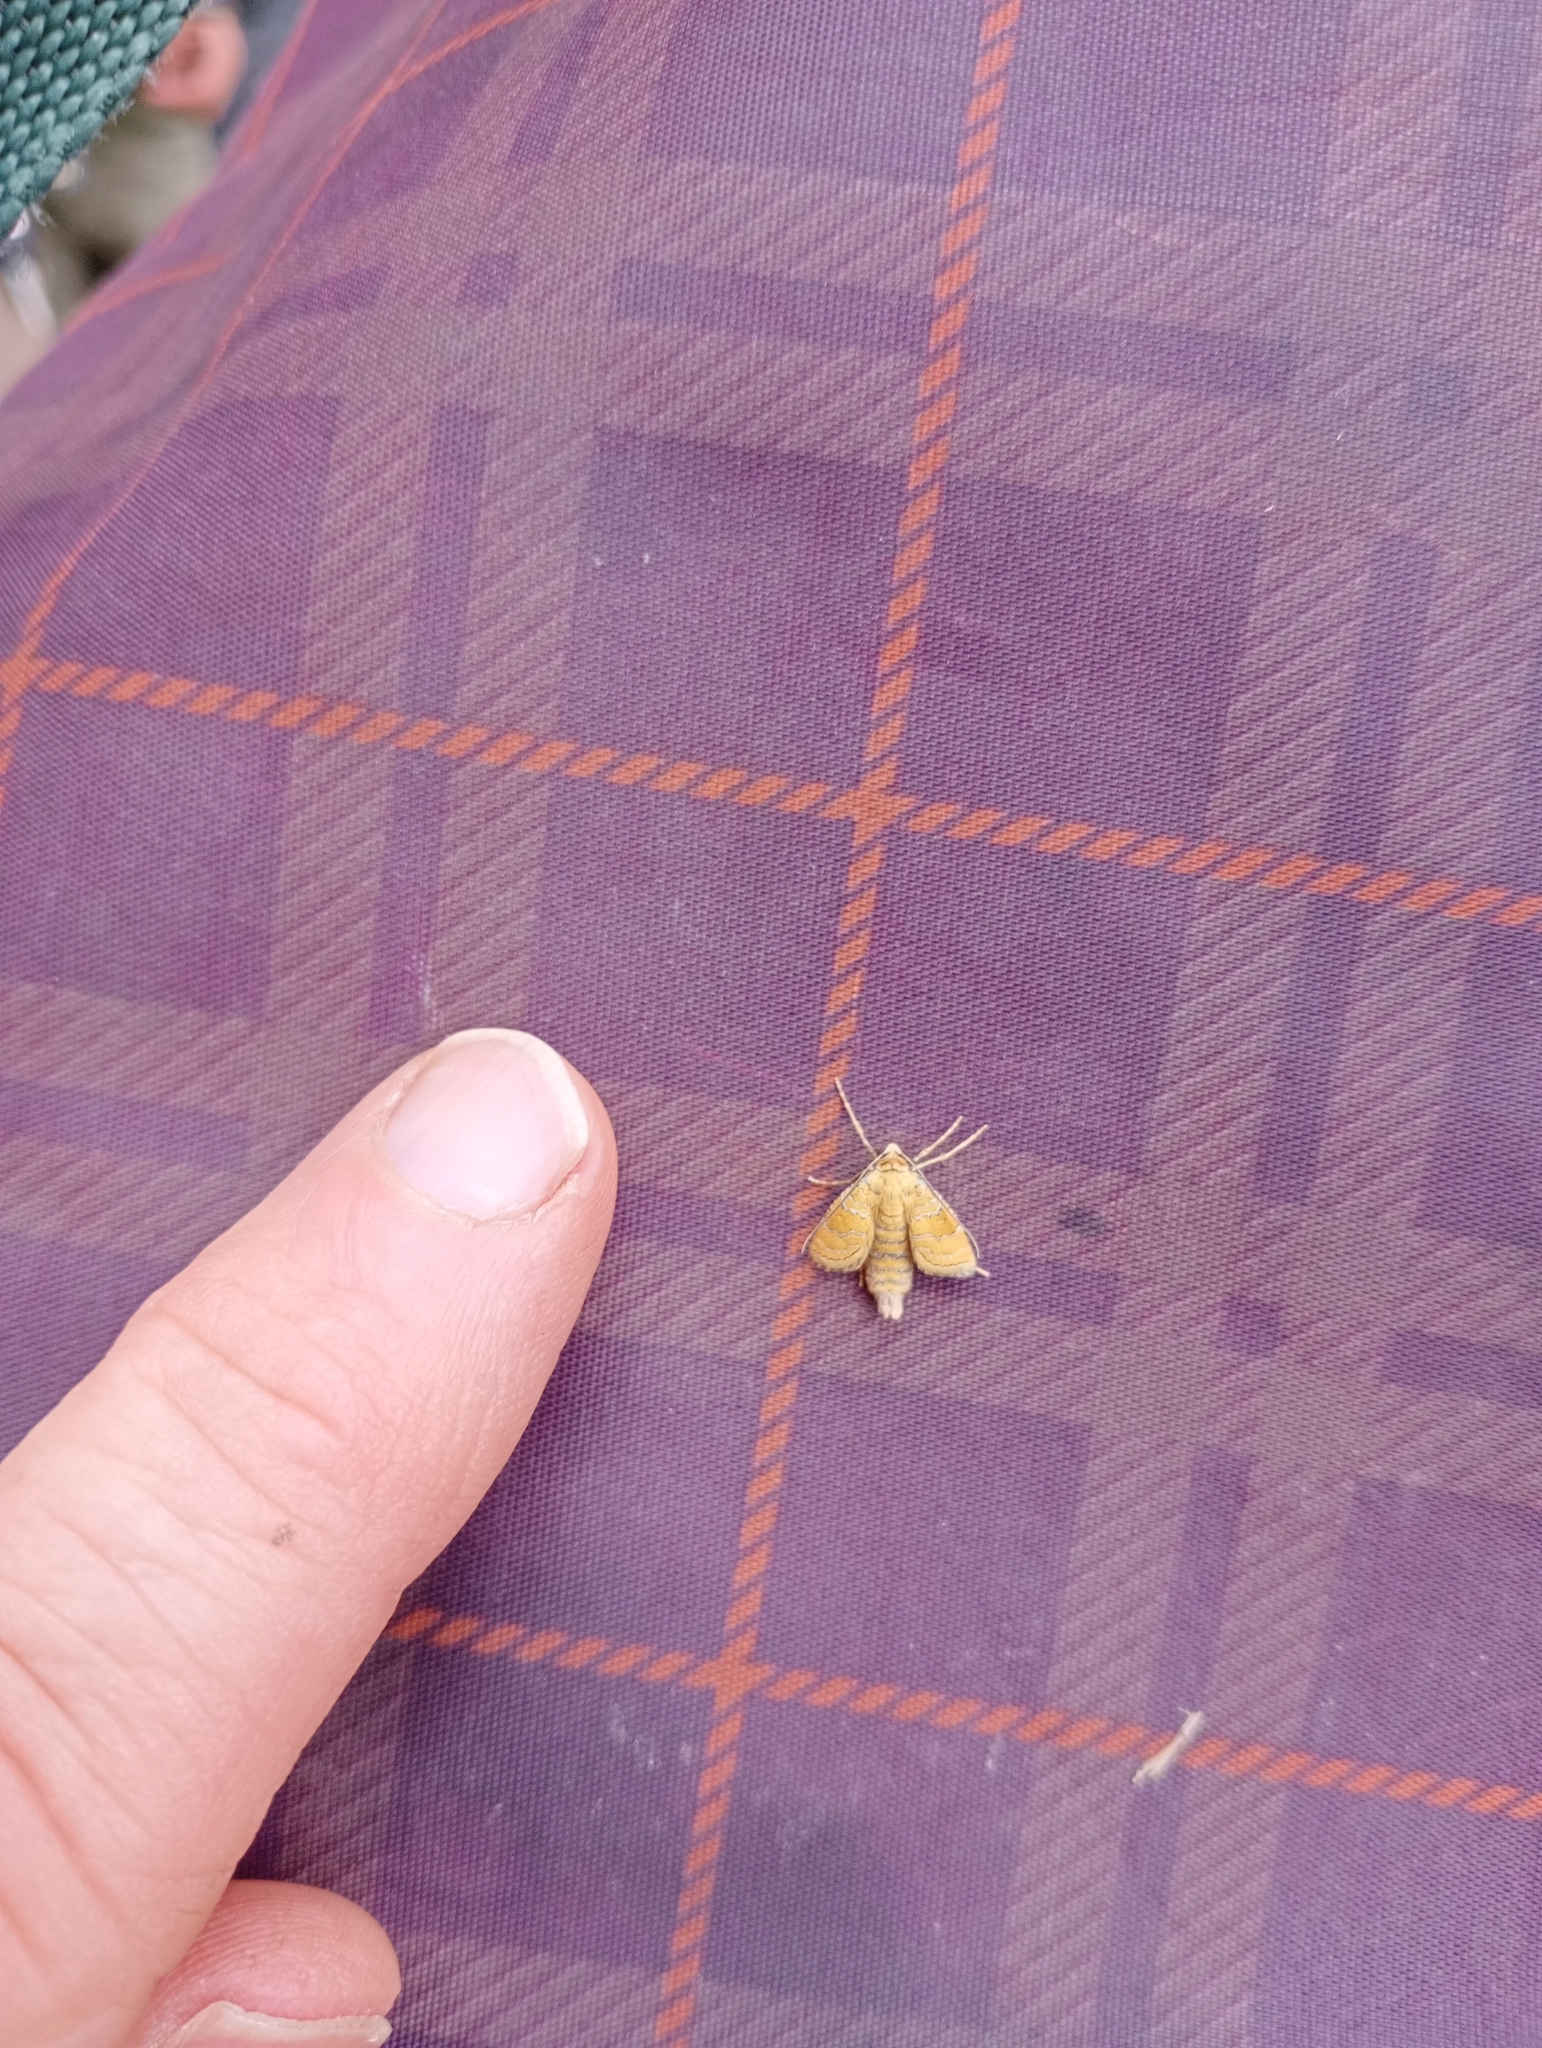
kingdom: Animalia
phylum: Arthropoda
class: Insecta
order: Lepidoptera
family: Geometridae
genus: Camptogramma
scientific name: Camptogramma bilineata
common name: Yellow shell
